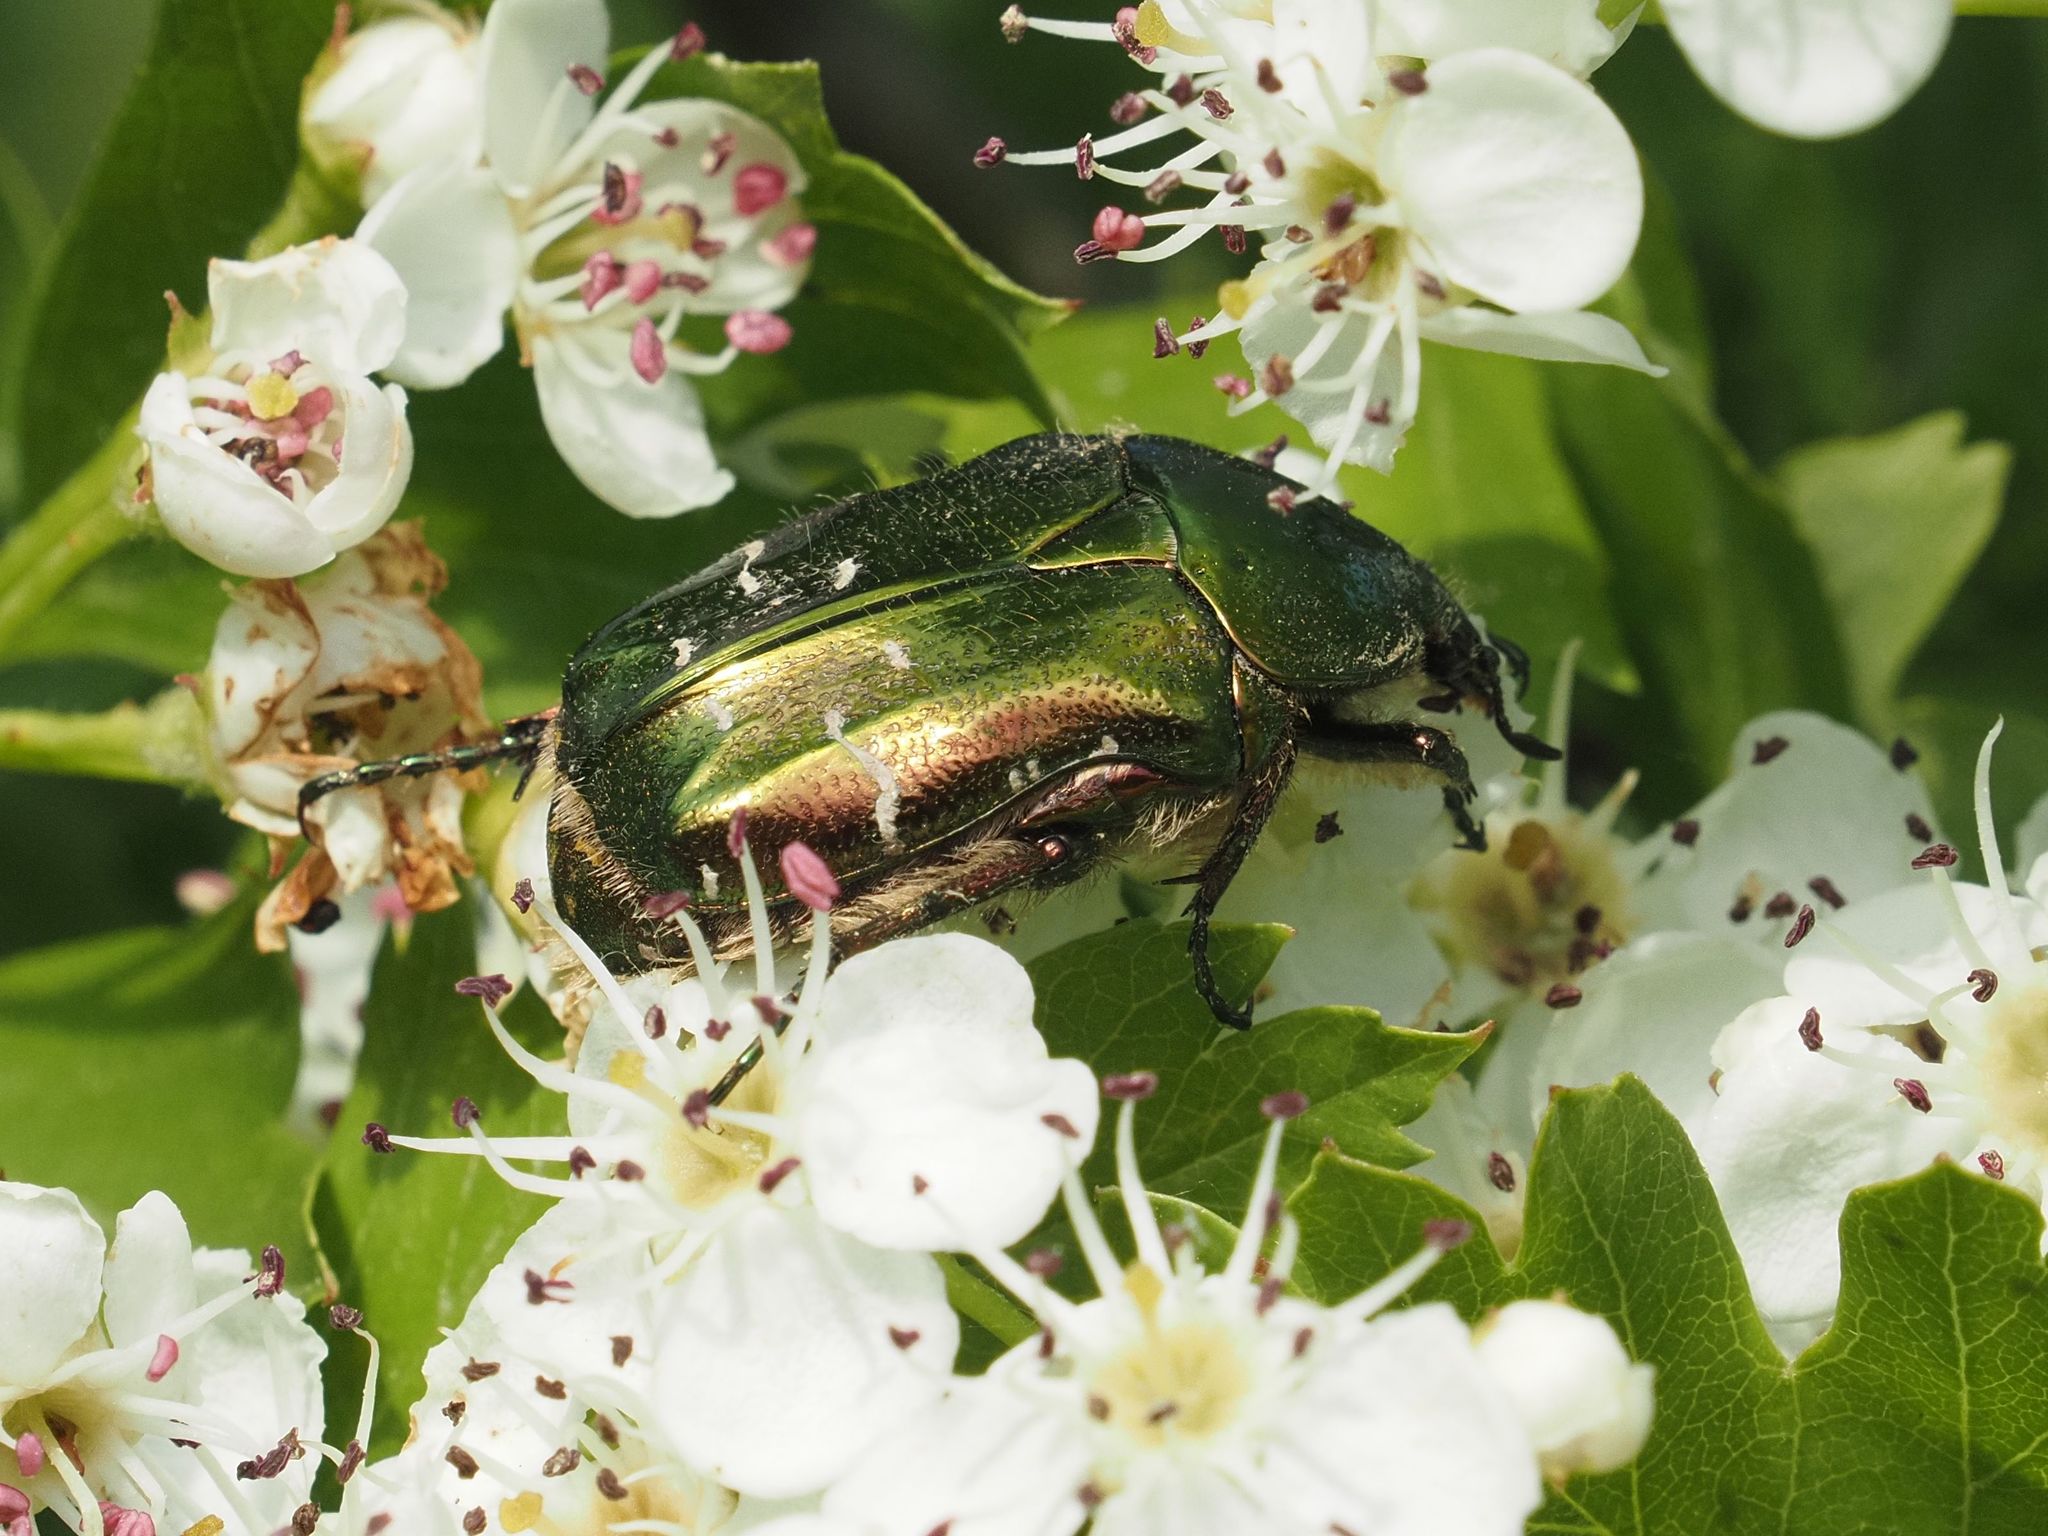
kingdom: Animalia
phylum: Arthropoda
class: Insecta
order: Coleoptera
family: Scarabaeidae
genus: Cetonia
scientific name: Cetonia aurata
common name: Rose chafer
